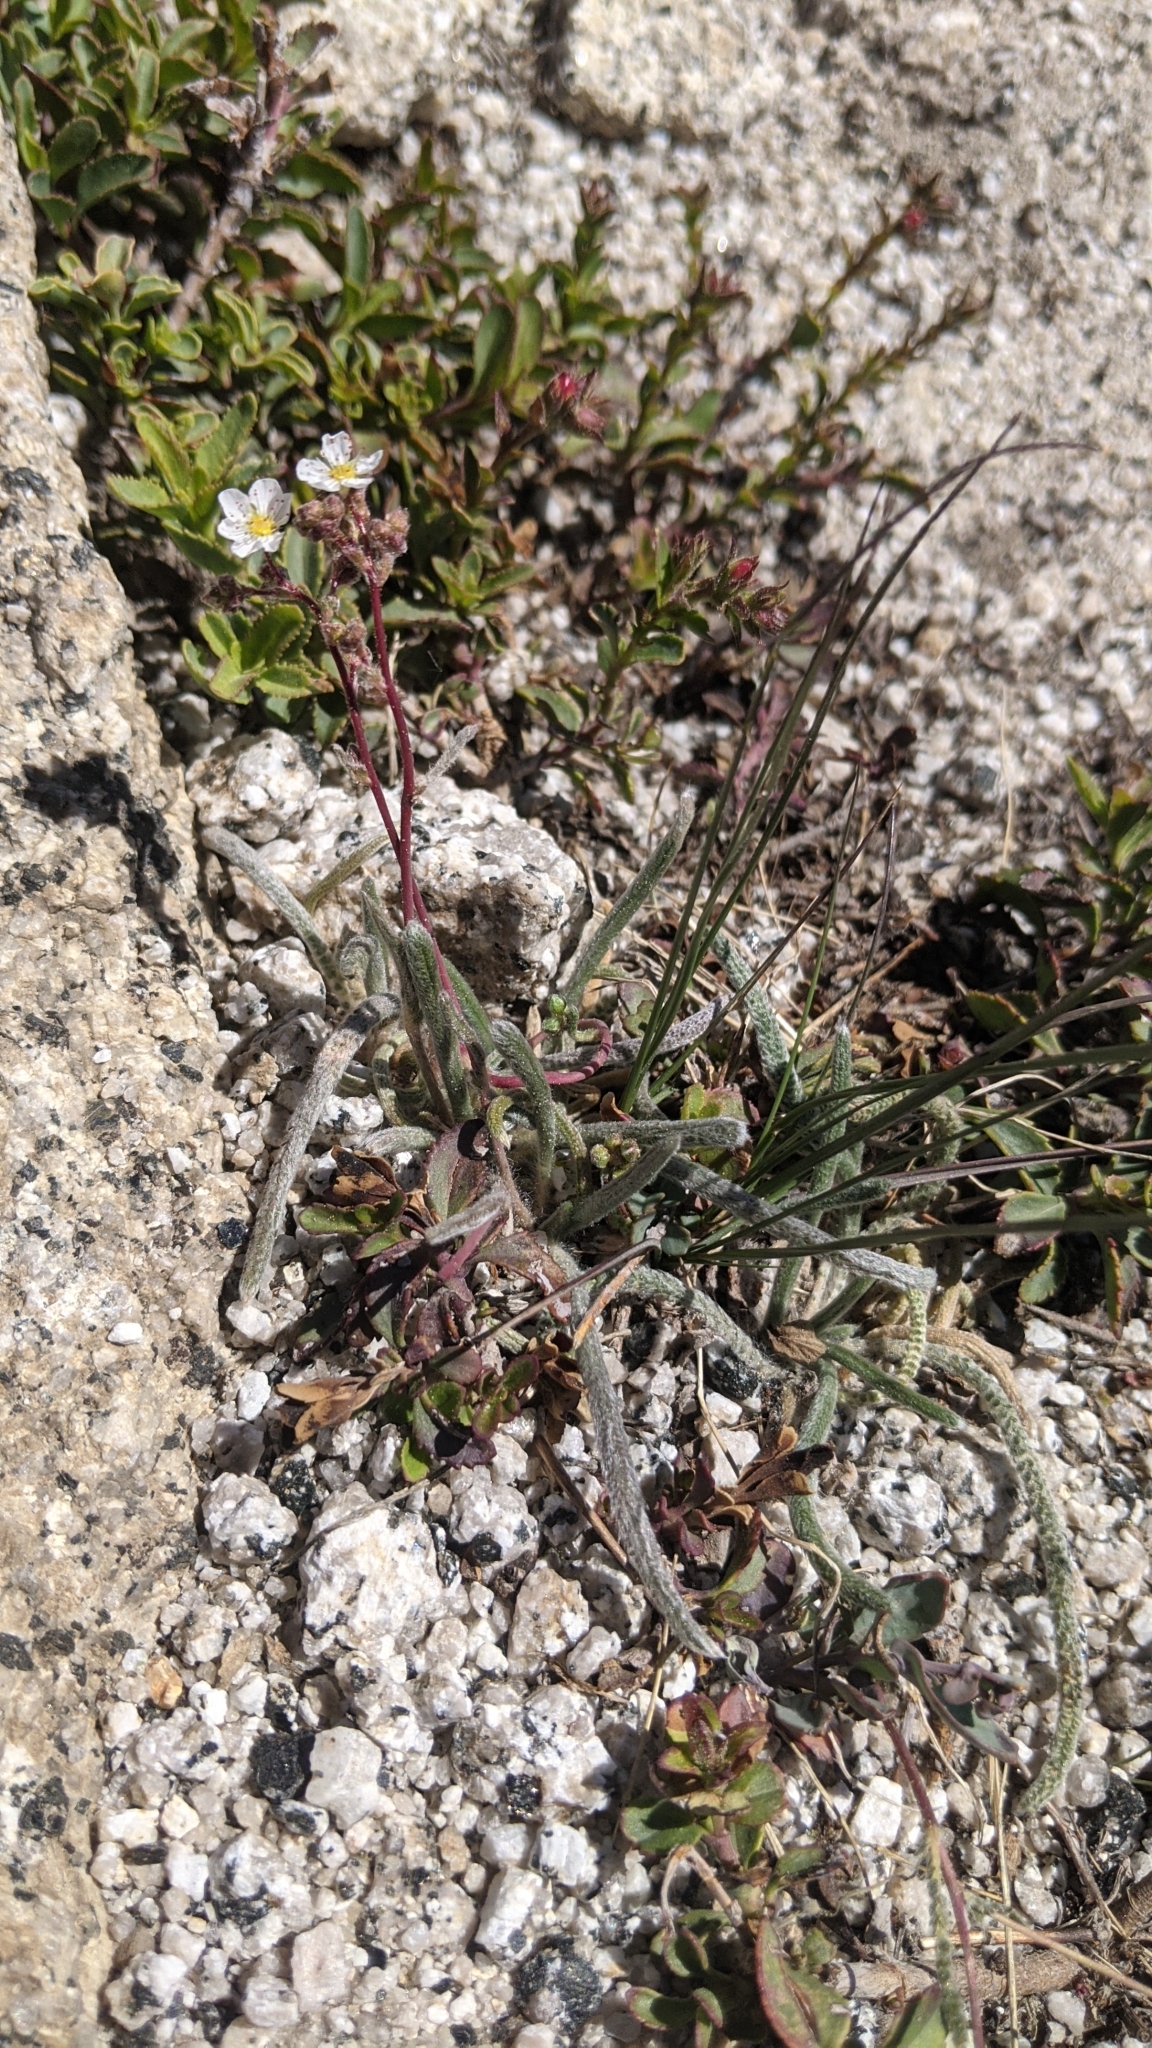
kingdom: Plantae
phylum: Tracheophyta
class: Magnoliopsida
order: Rosales
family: Rosaceae
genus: Potentilla
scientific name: Potentilla santolinoides
